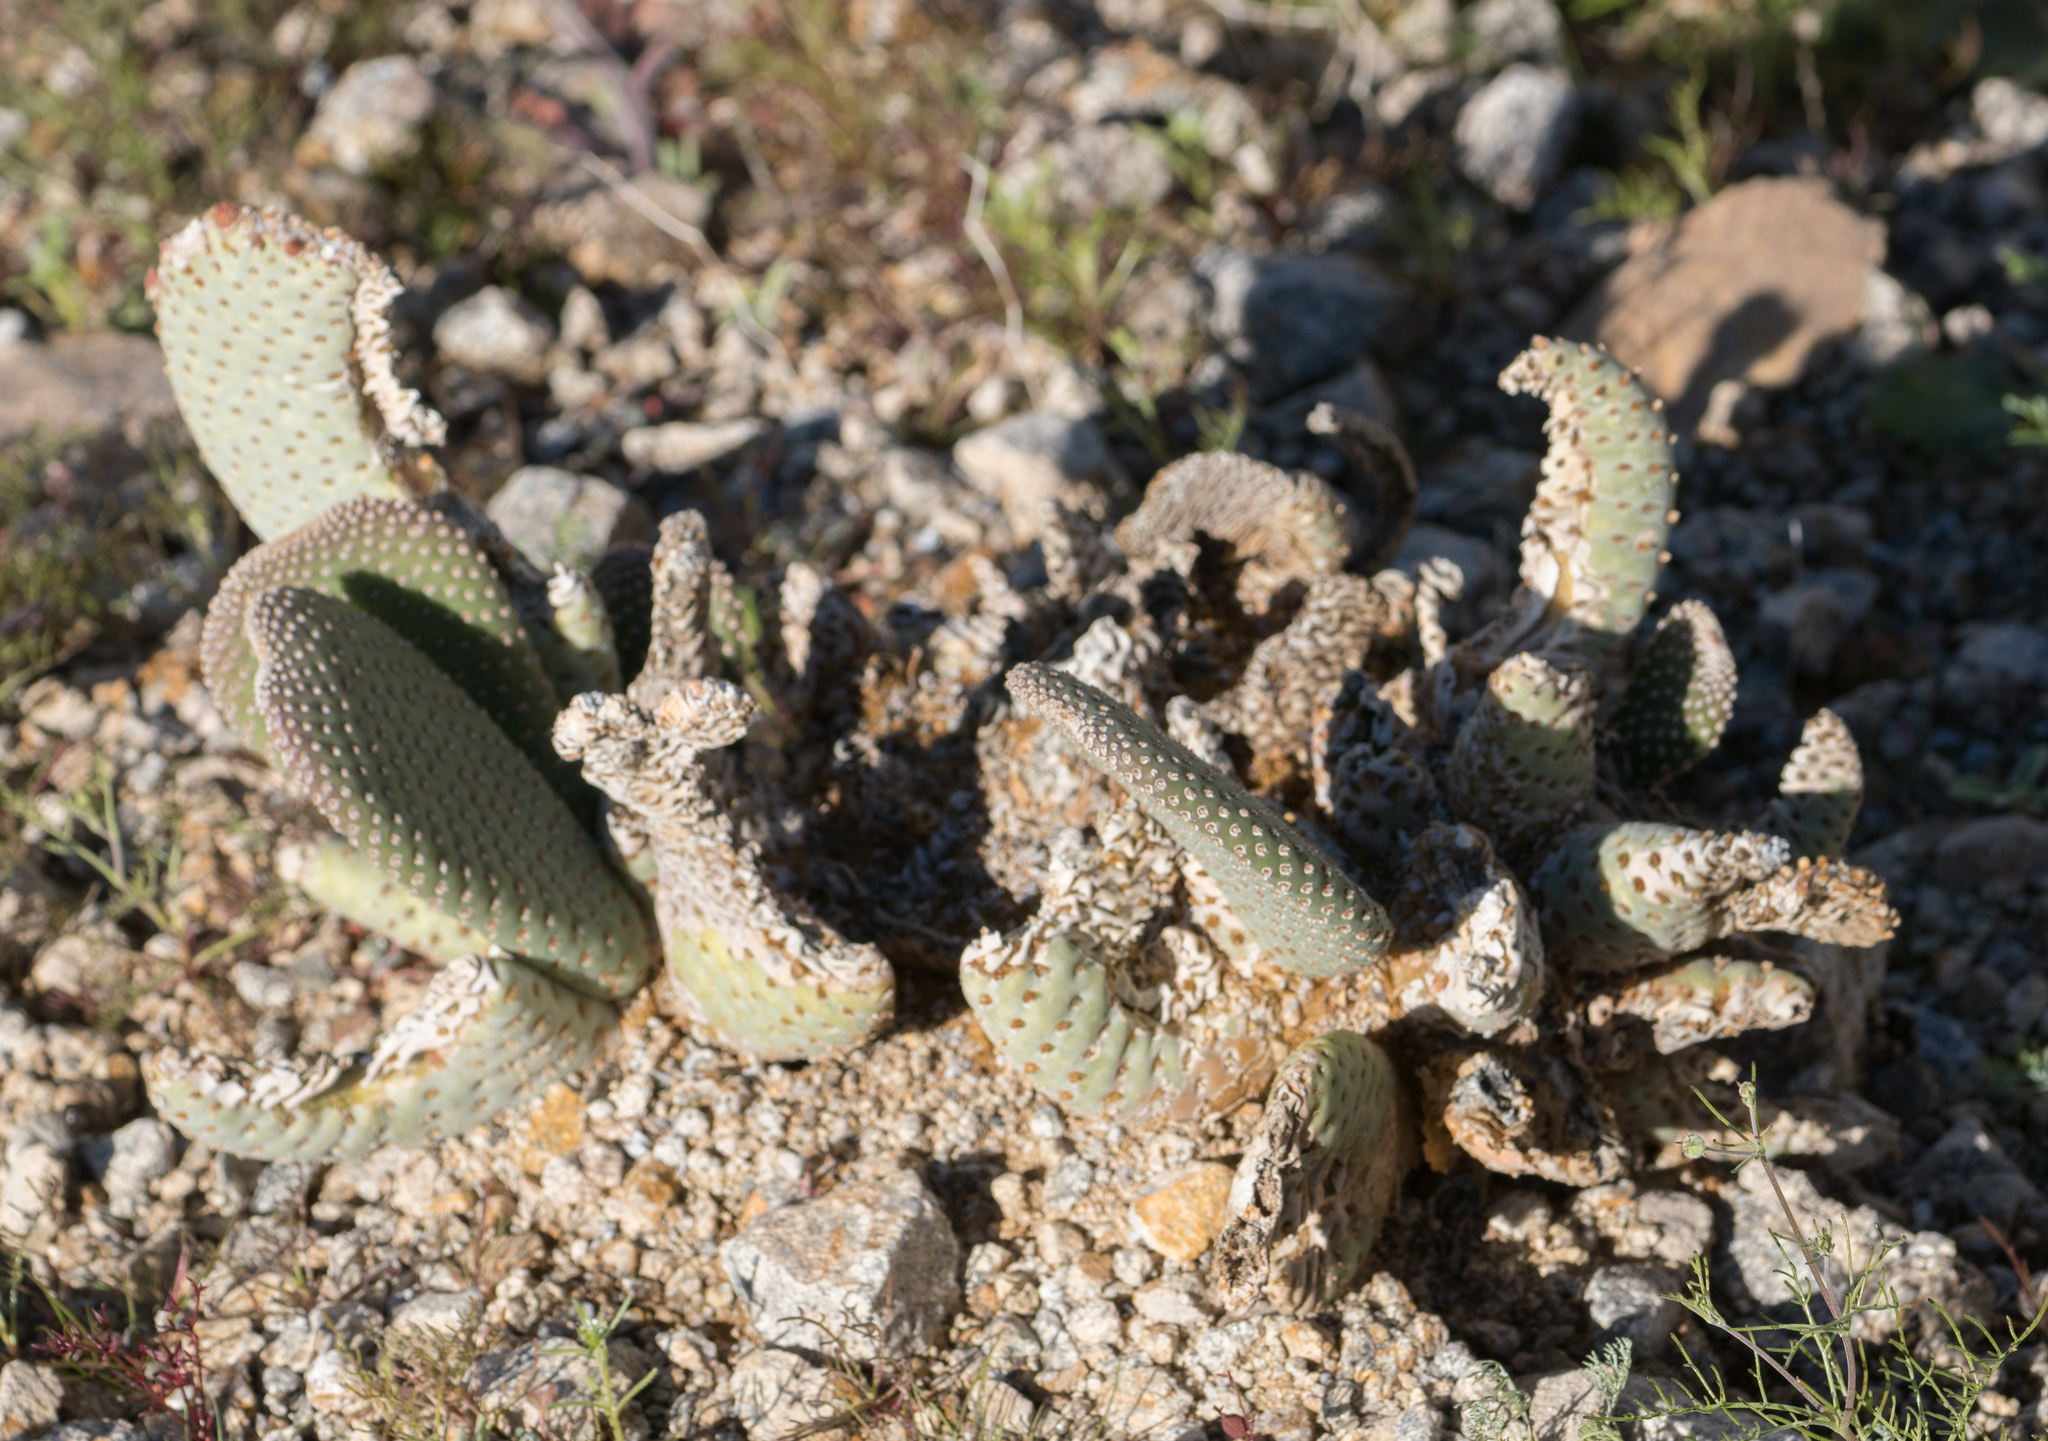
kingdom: Plantae
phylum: Tracheophyta
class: Magnoliopsida
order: Caryophyllales
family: Cactaceae
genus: Opuntia
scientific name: Opuntia basilaris
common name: Beavertail prickly-pear
